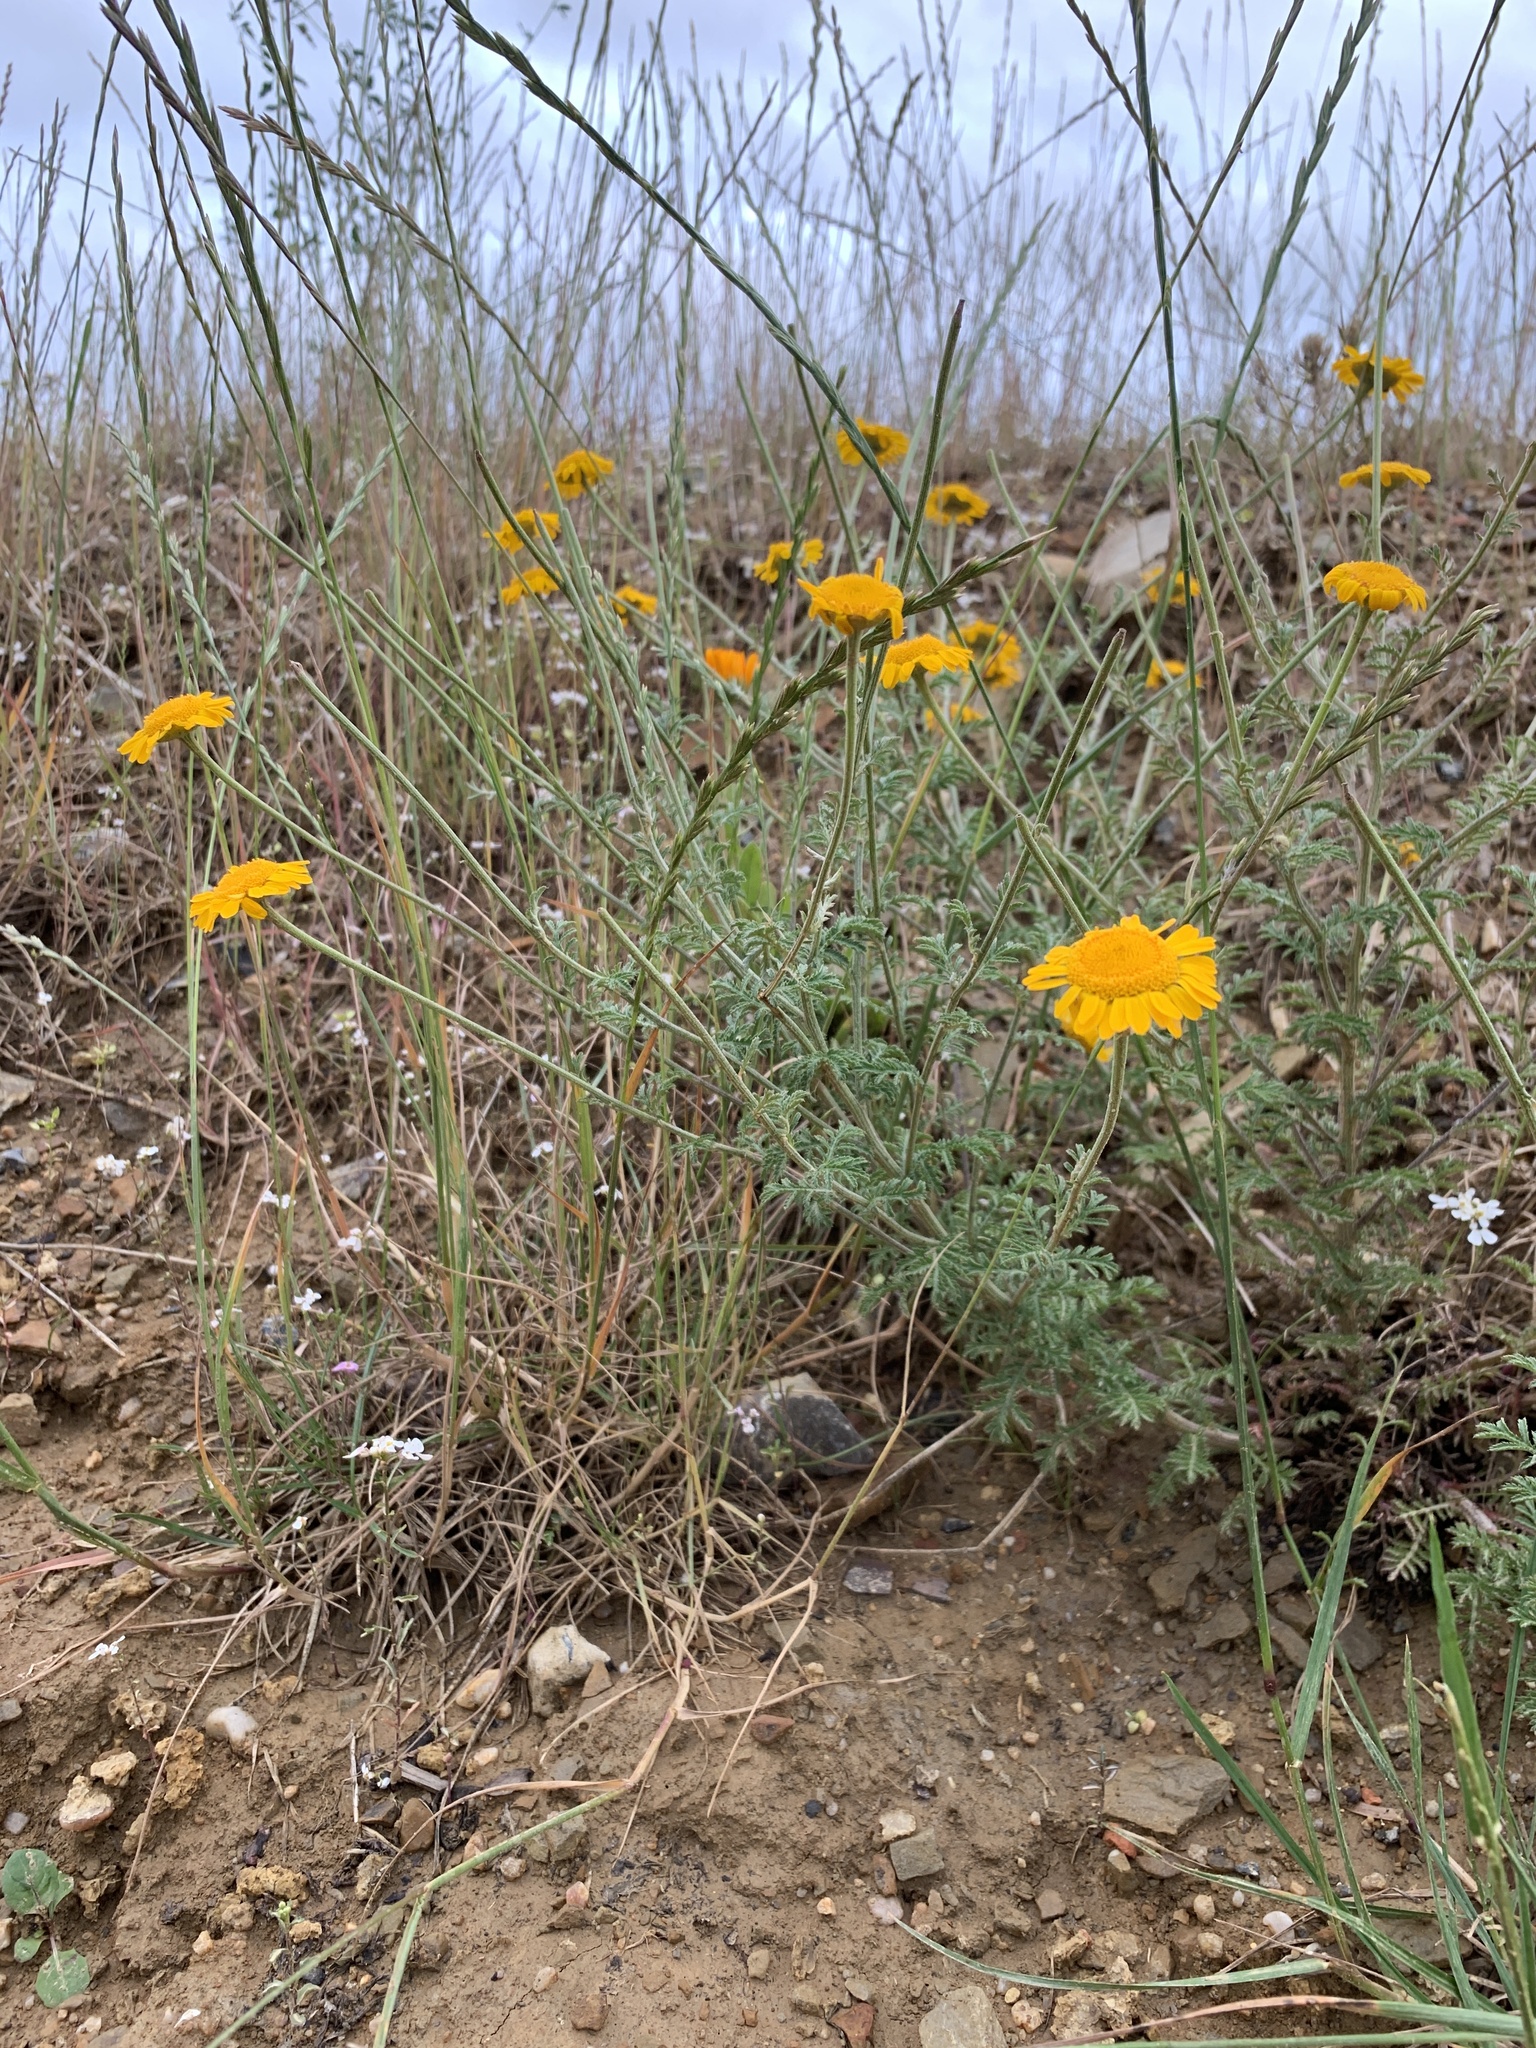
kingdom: Plantae
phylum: Tracheophyta
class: Magnoliopsida
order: Asterales
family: Asteraceae
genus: Cota
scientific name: Cota tinctoria
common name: Golden chamomile
